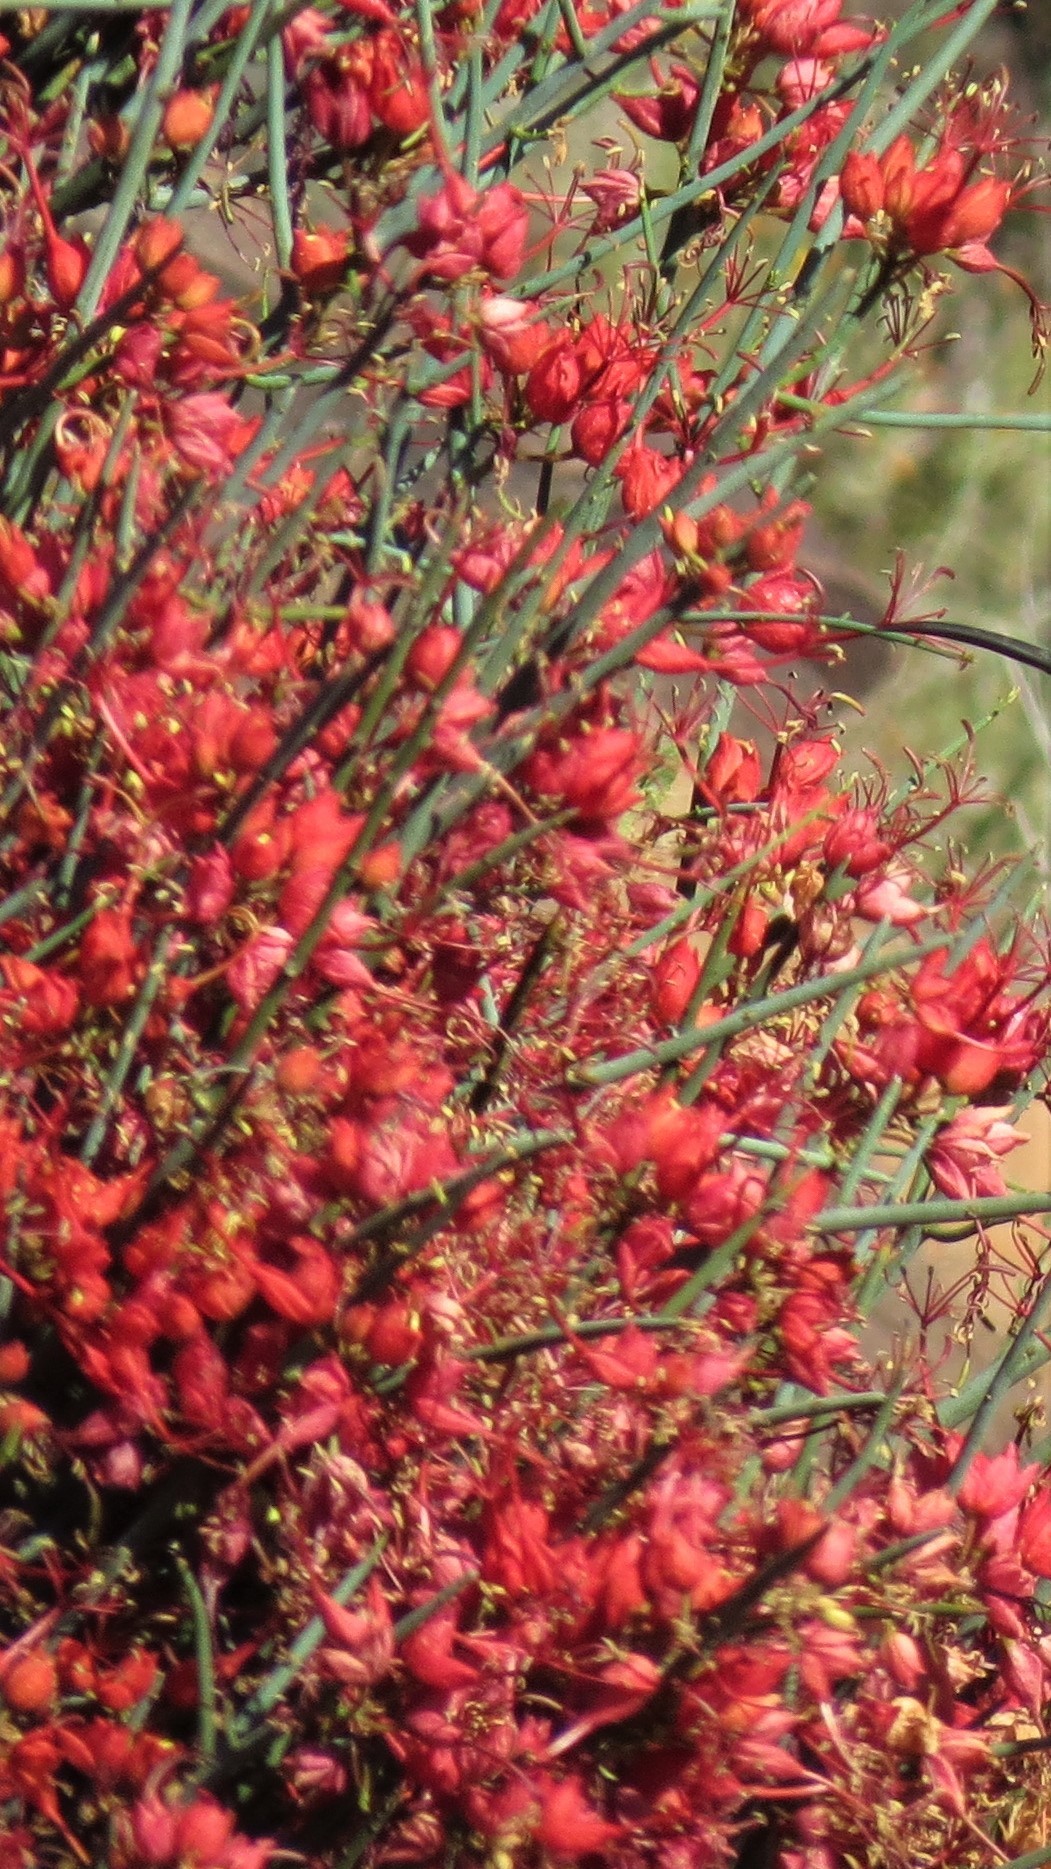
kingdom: Plantae
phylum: Tracheophyta
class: Magnoliopsida
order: Brassicales
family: Capparaceae
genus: Cadaba
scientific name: Cadaba aphylla
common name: Black storm
